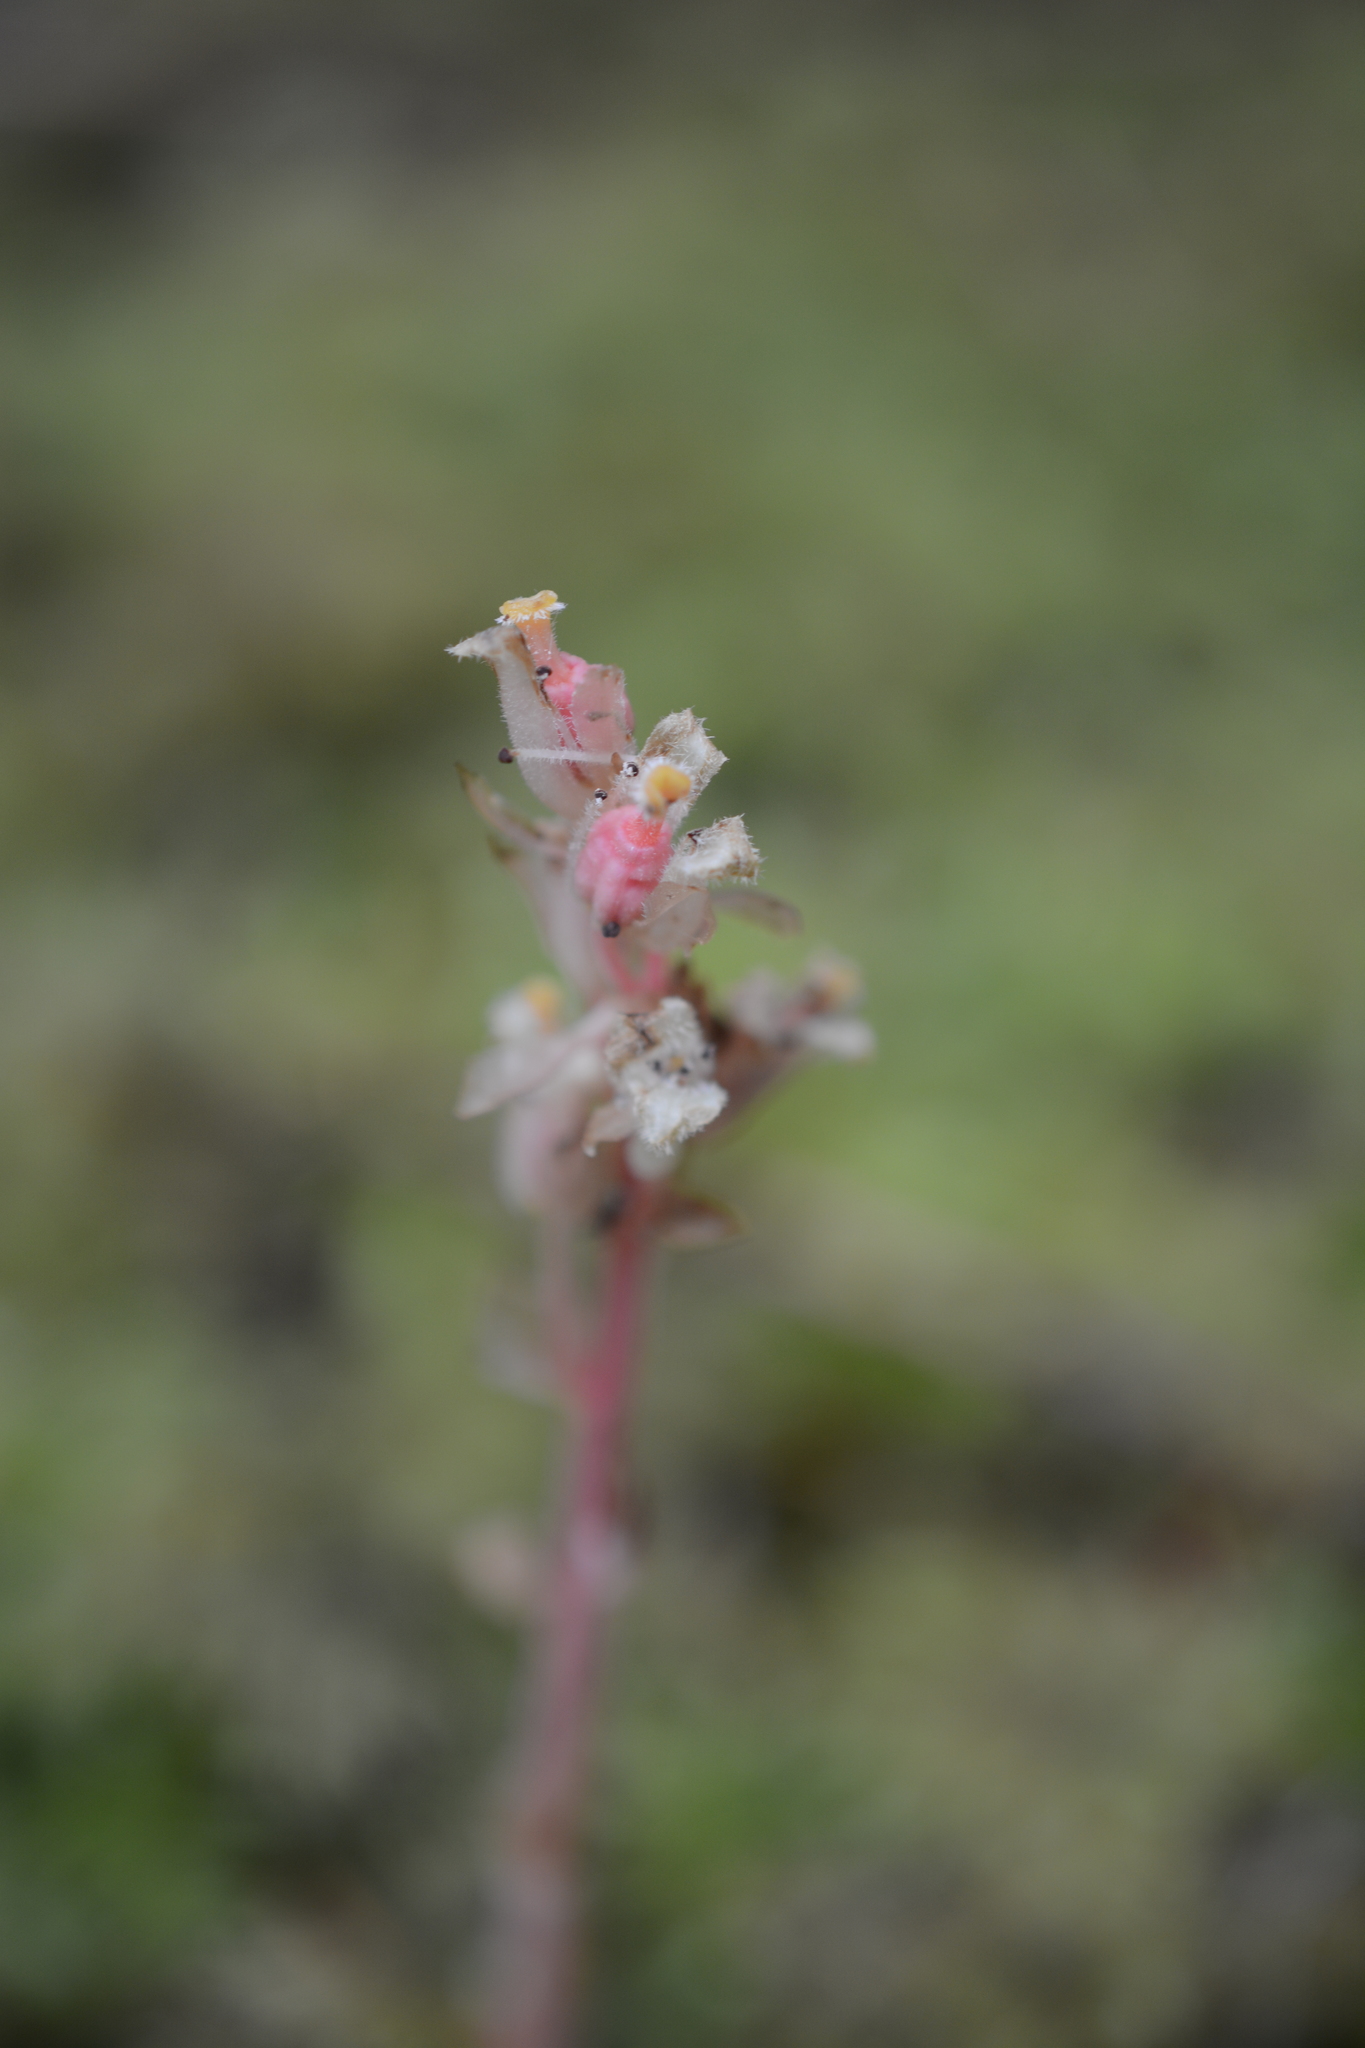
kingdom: Plantae
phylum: Tracheophyta
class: Magnoliopsida
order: Ericales
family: Ericaceae
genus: Hypopitys
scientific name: Hypopitys monotropa
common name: Yellow bird's-nest
